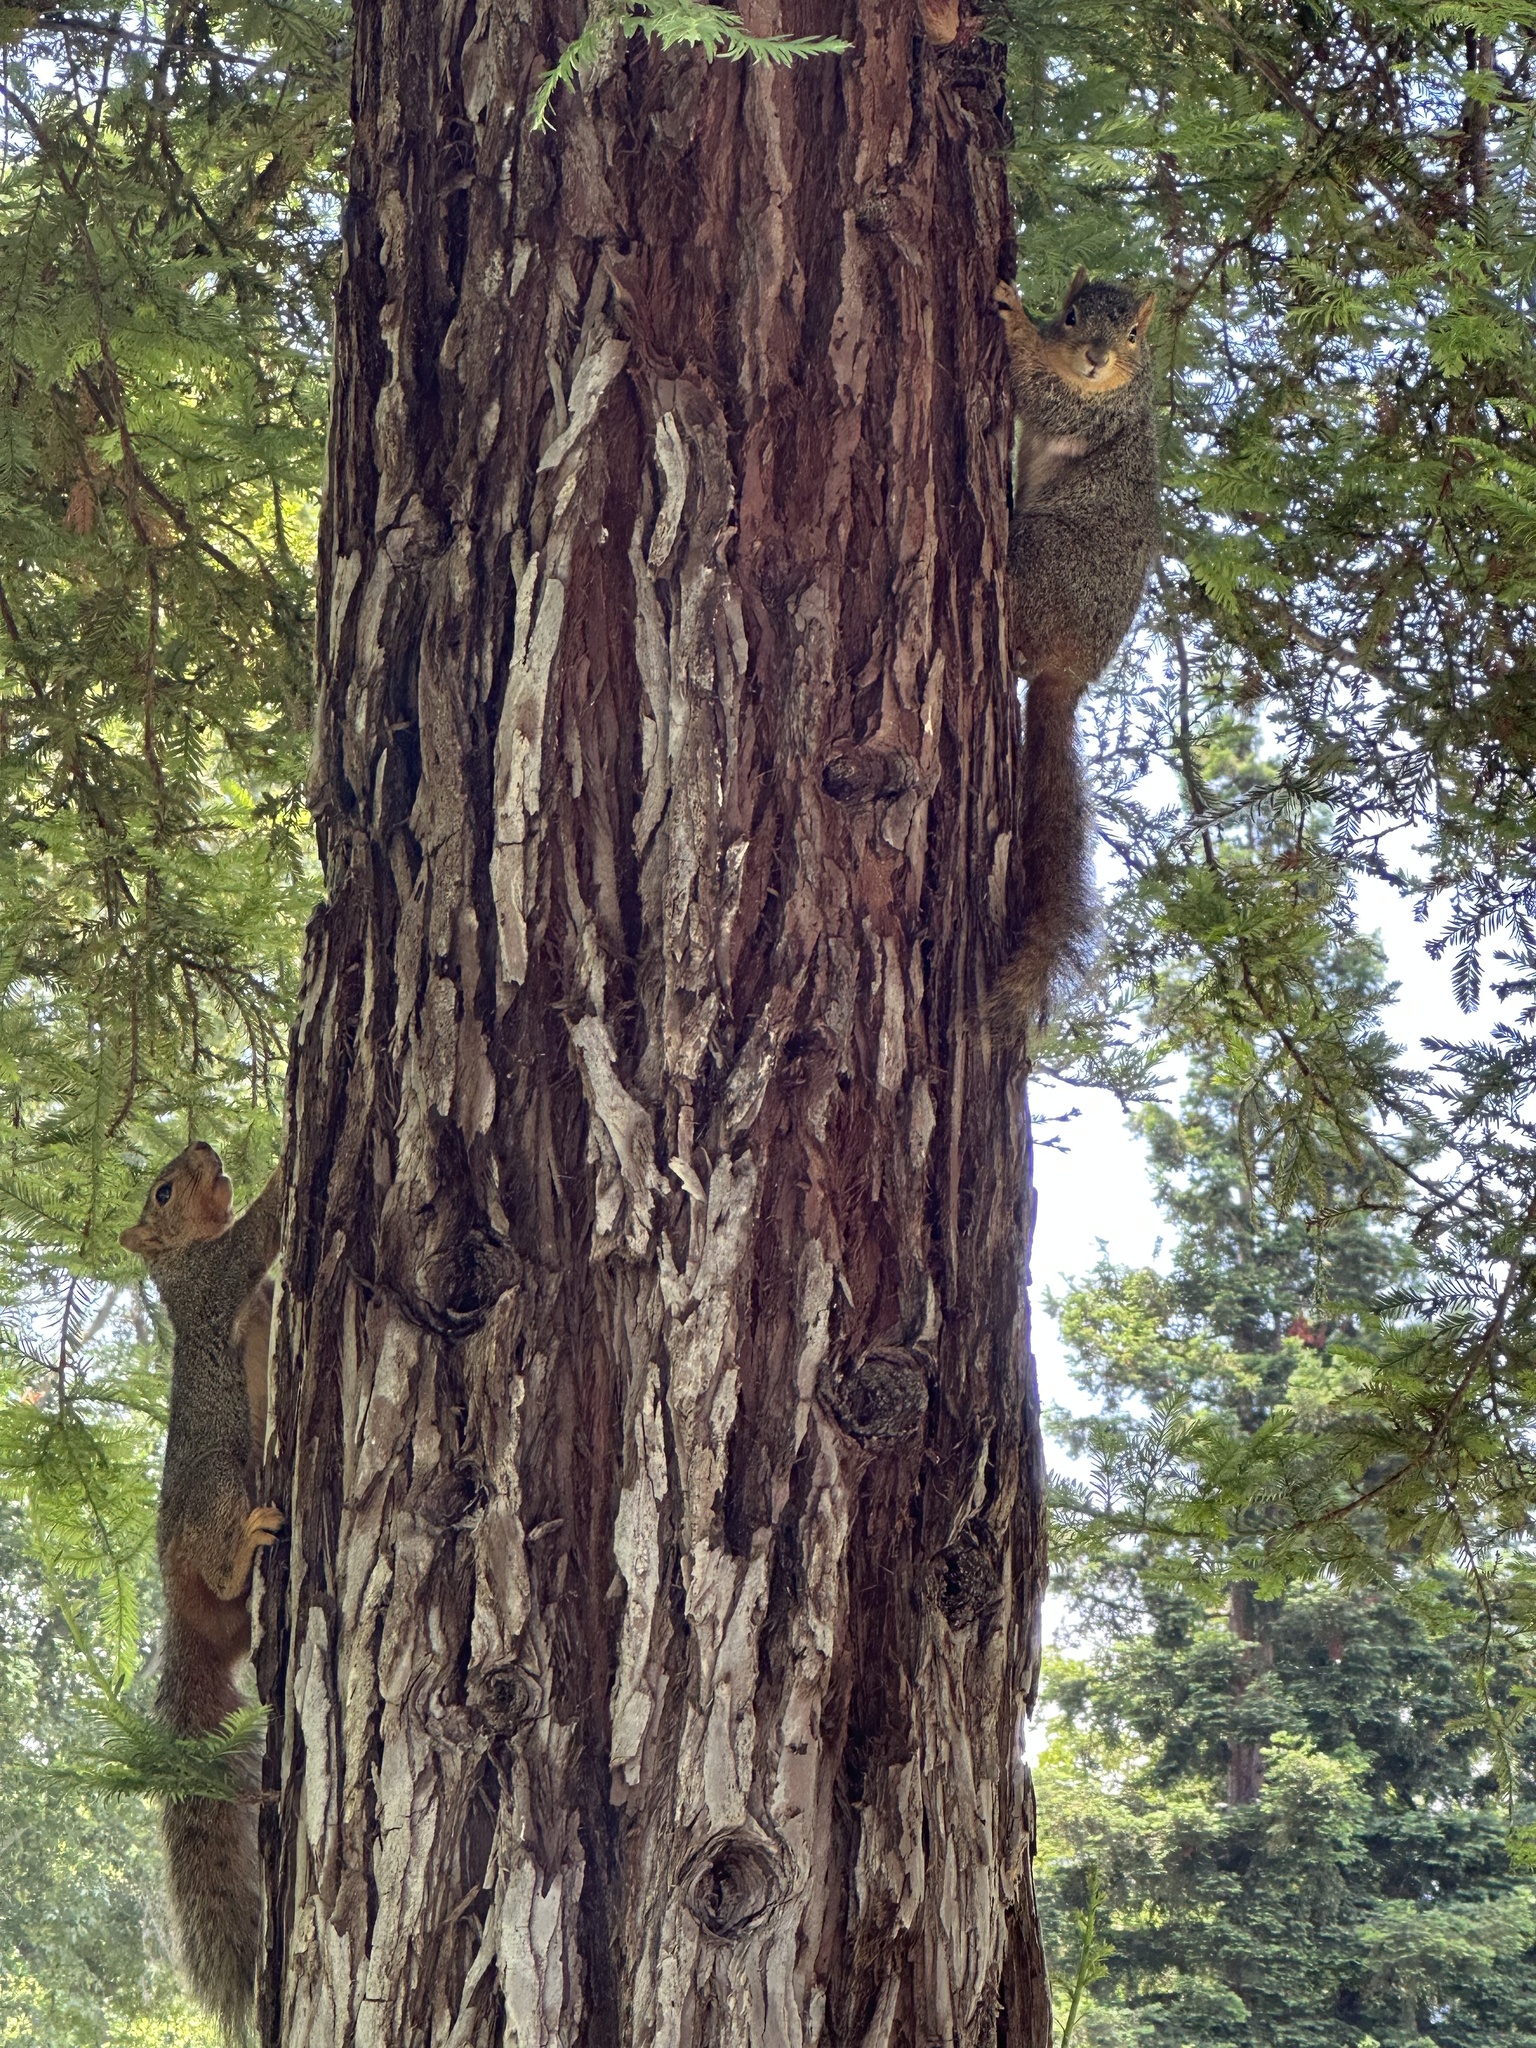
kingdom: Animalia
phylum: Chordata
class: Mammalia
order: Rodentia
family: Sciuridae
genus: Sciurus
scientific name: Sciurus niger
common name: Fox squirrel
